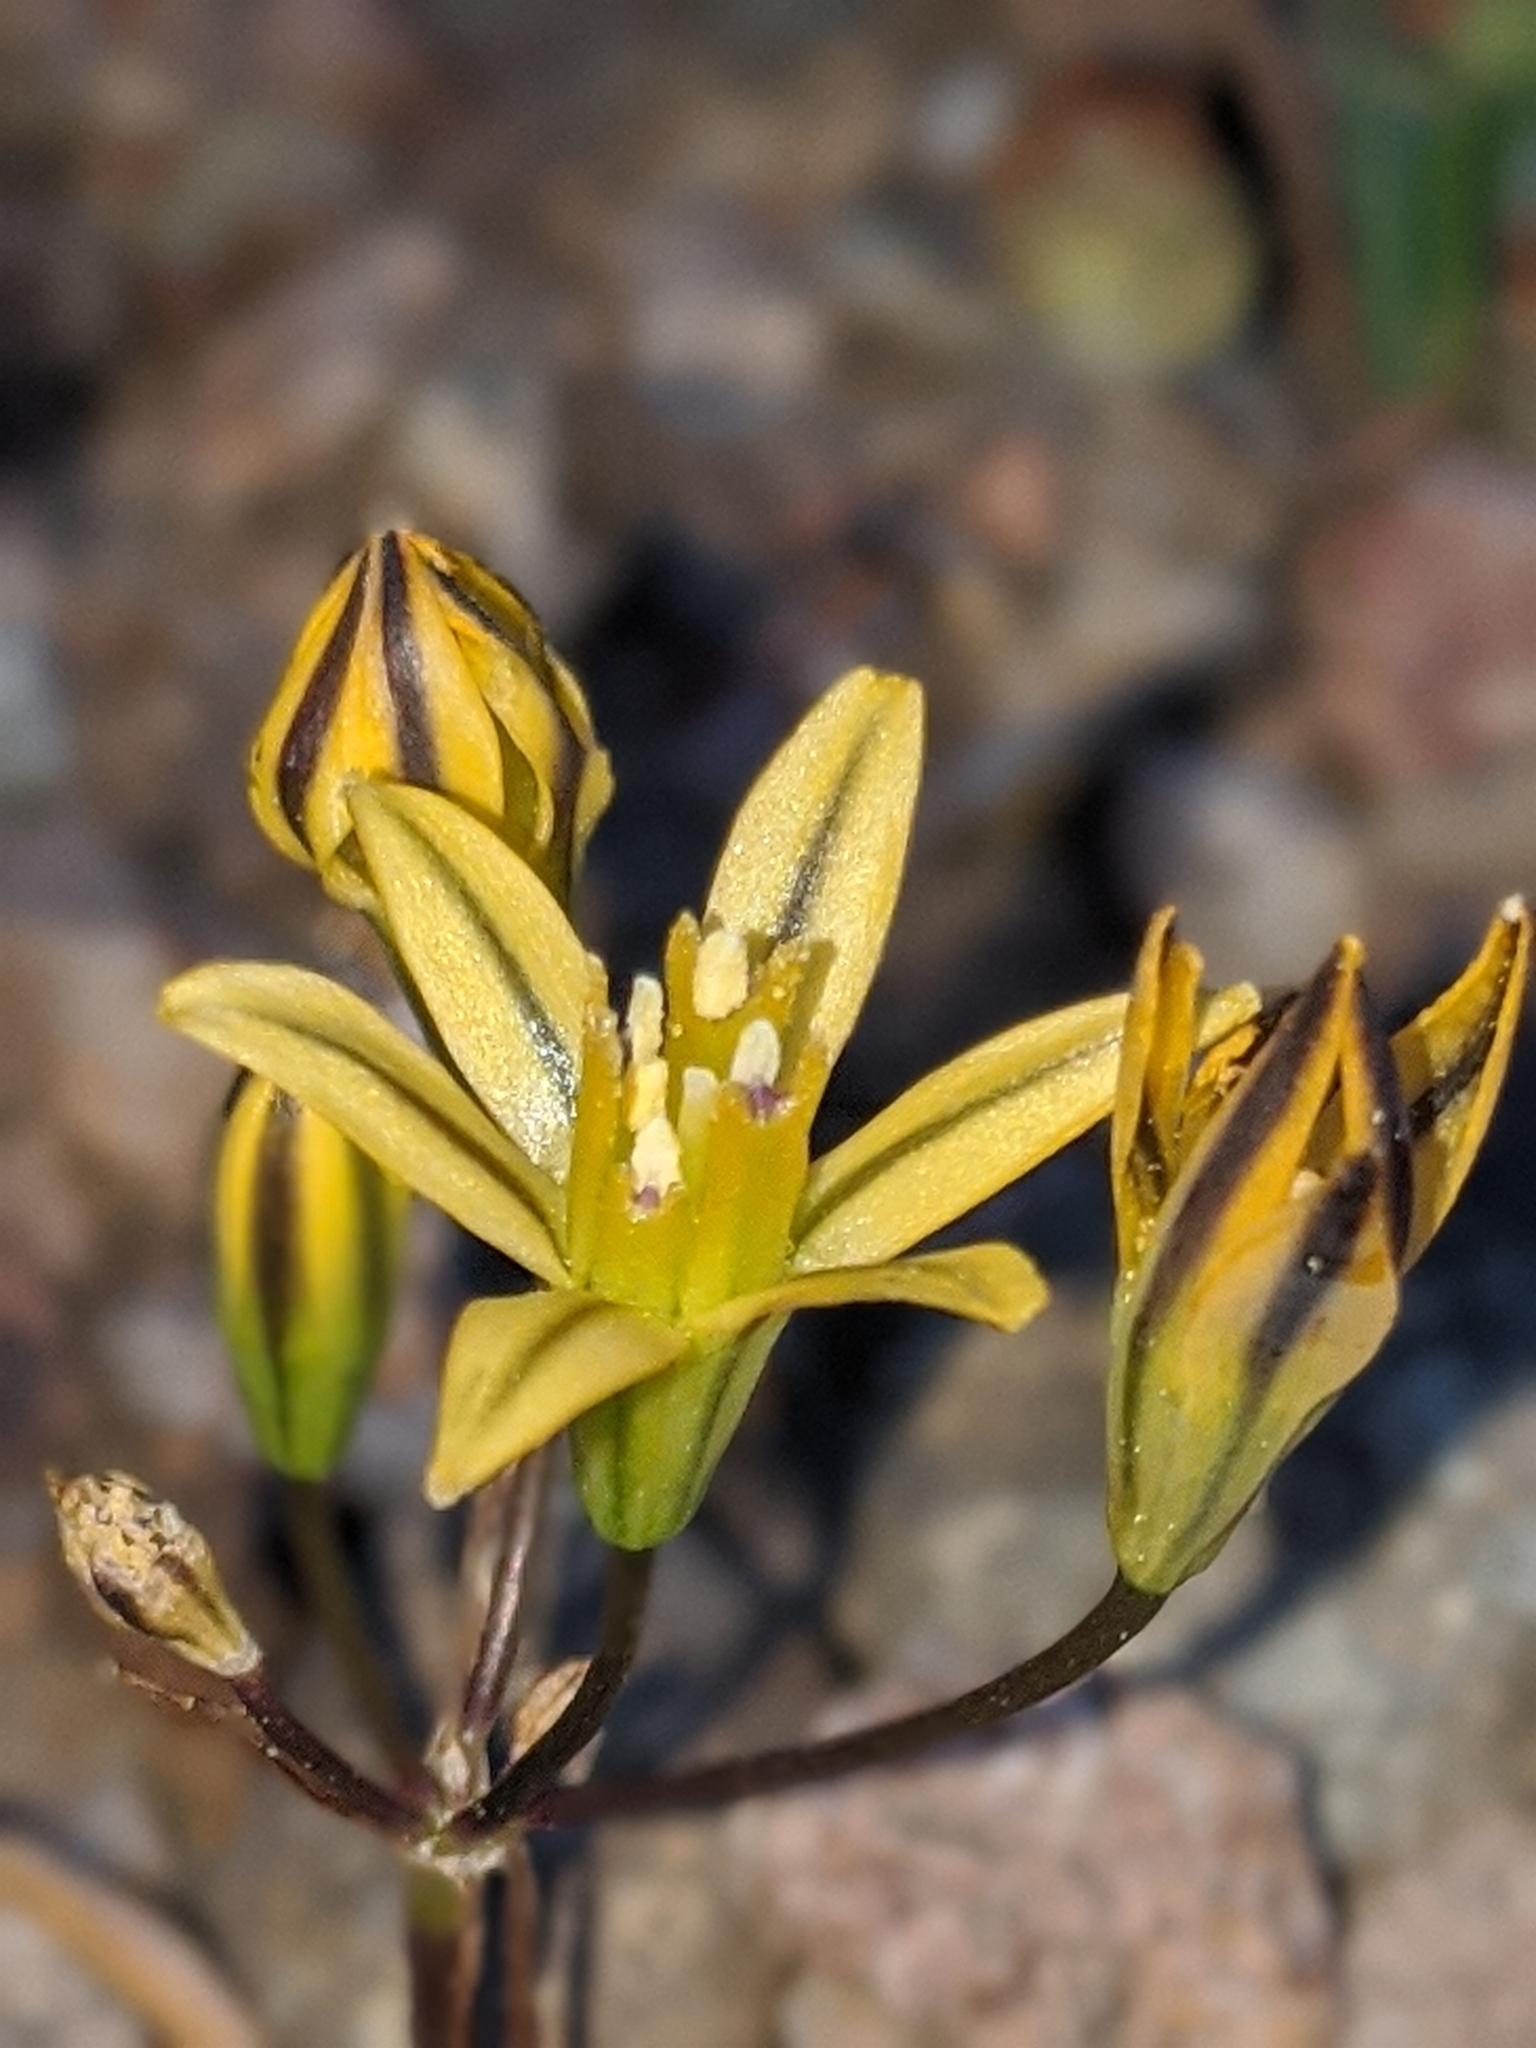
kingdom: Plantae
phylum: Tracheophyta
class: Liliopsida
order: Asparagales
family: Asparagaceae
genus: Triteleia
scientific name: Triteleia ixioides
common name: Yellow-brodiaea
